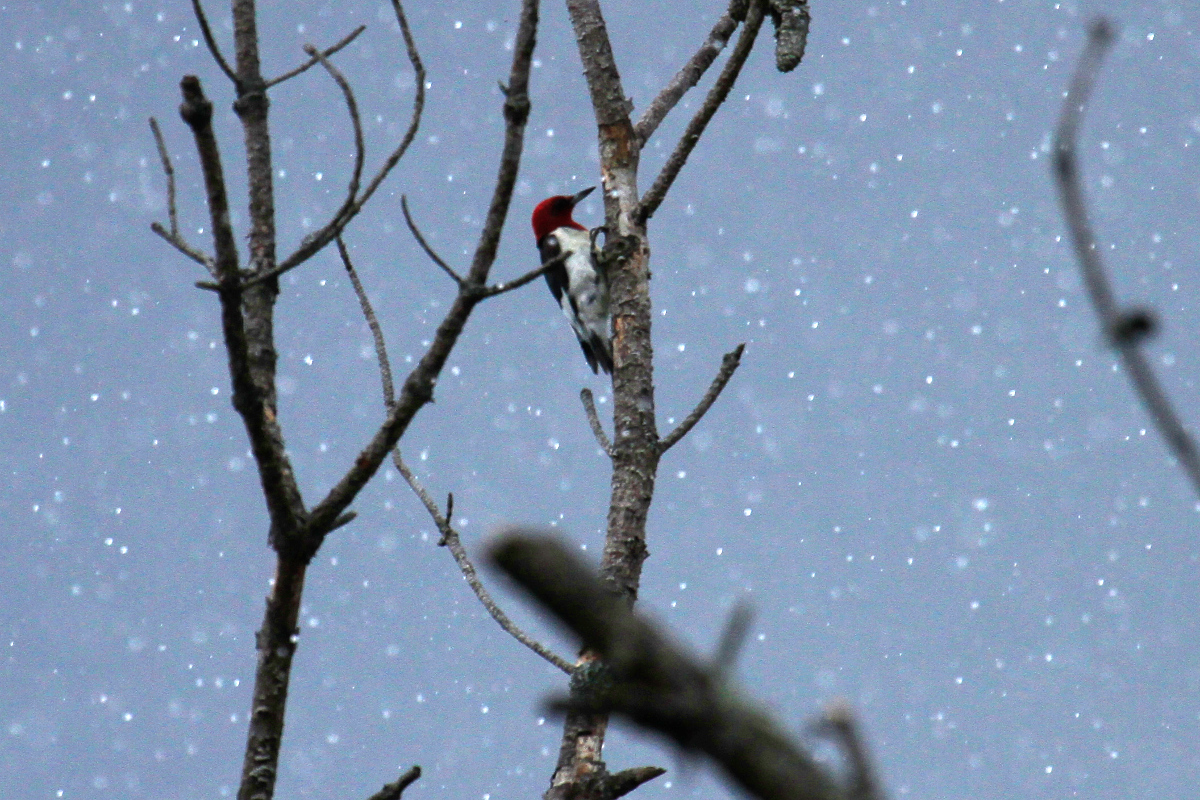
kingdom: Animalia
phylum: Chordata
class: Aves
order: Piciformes
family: Picidae
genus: Melanerpes
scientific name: Melanerpes erythrocephalus
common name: Red-headed woodpecker
